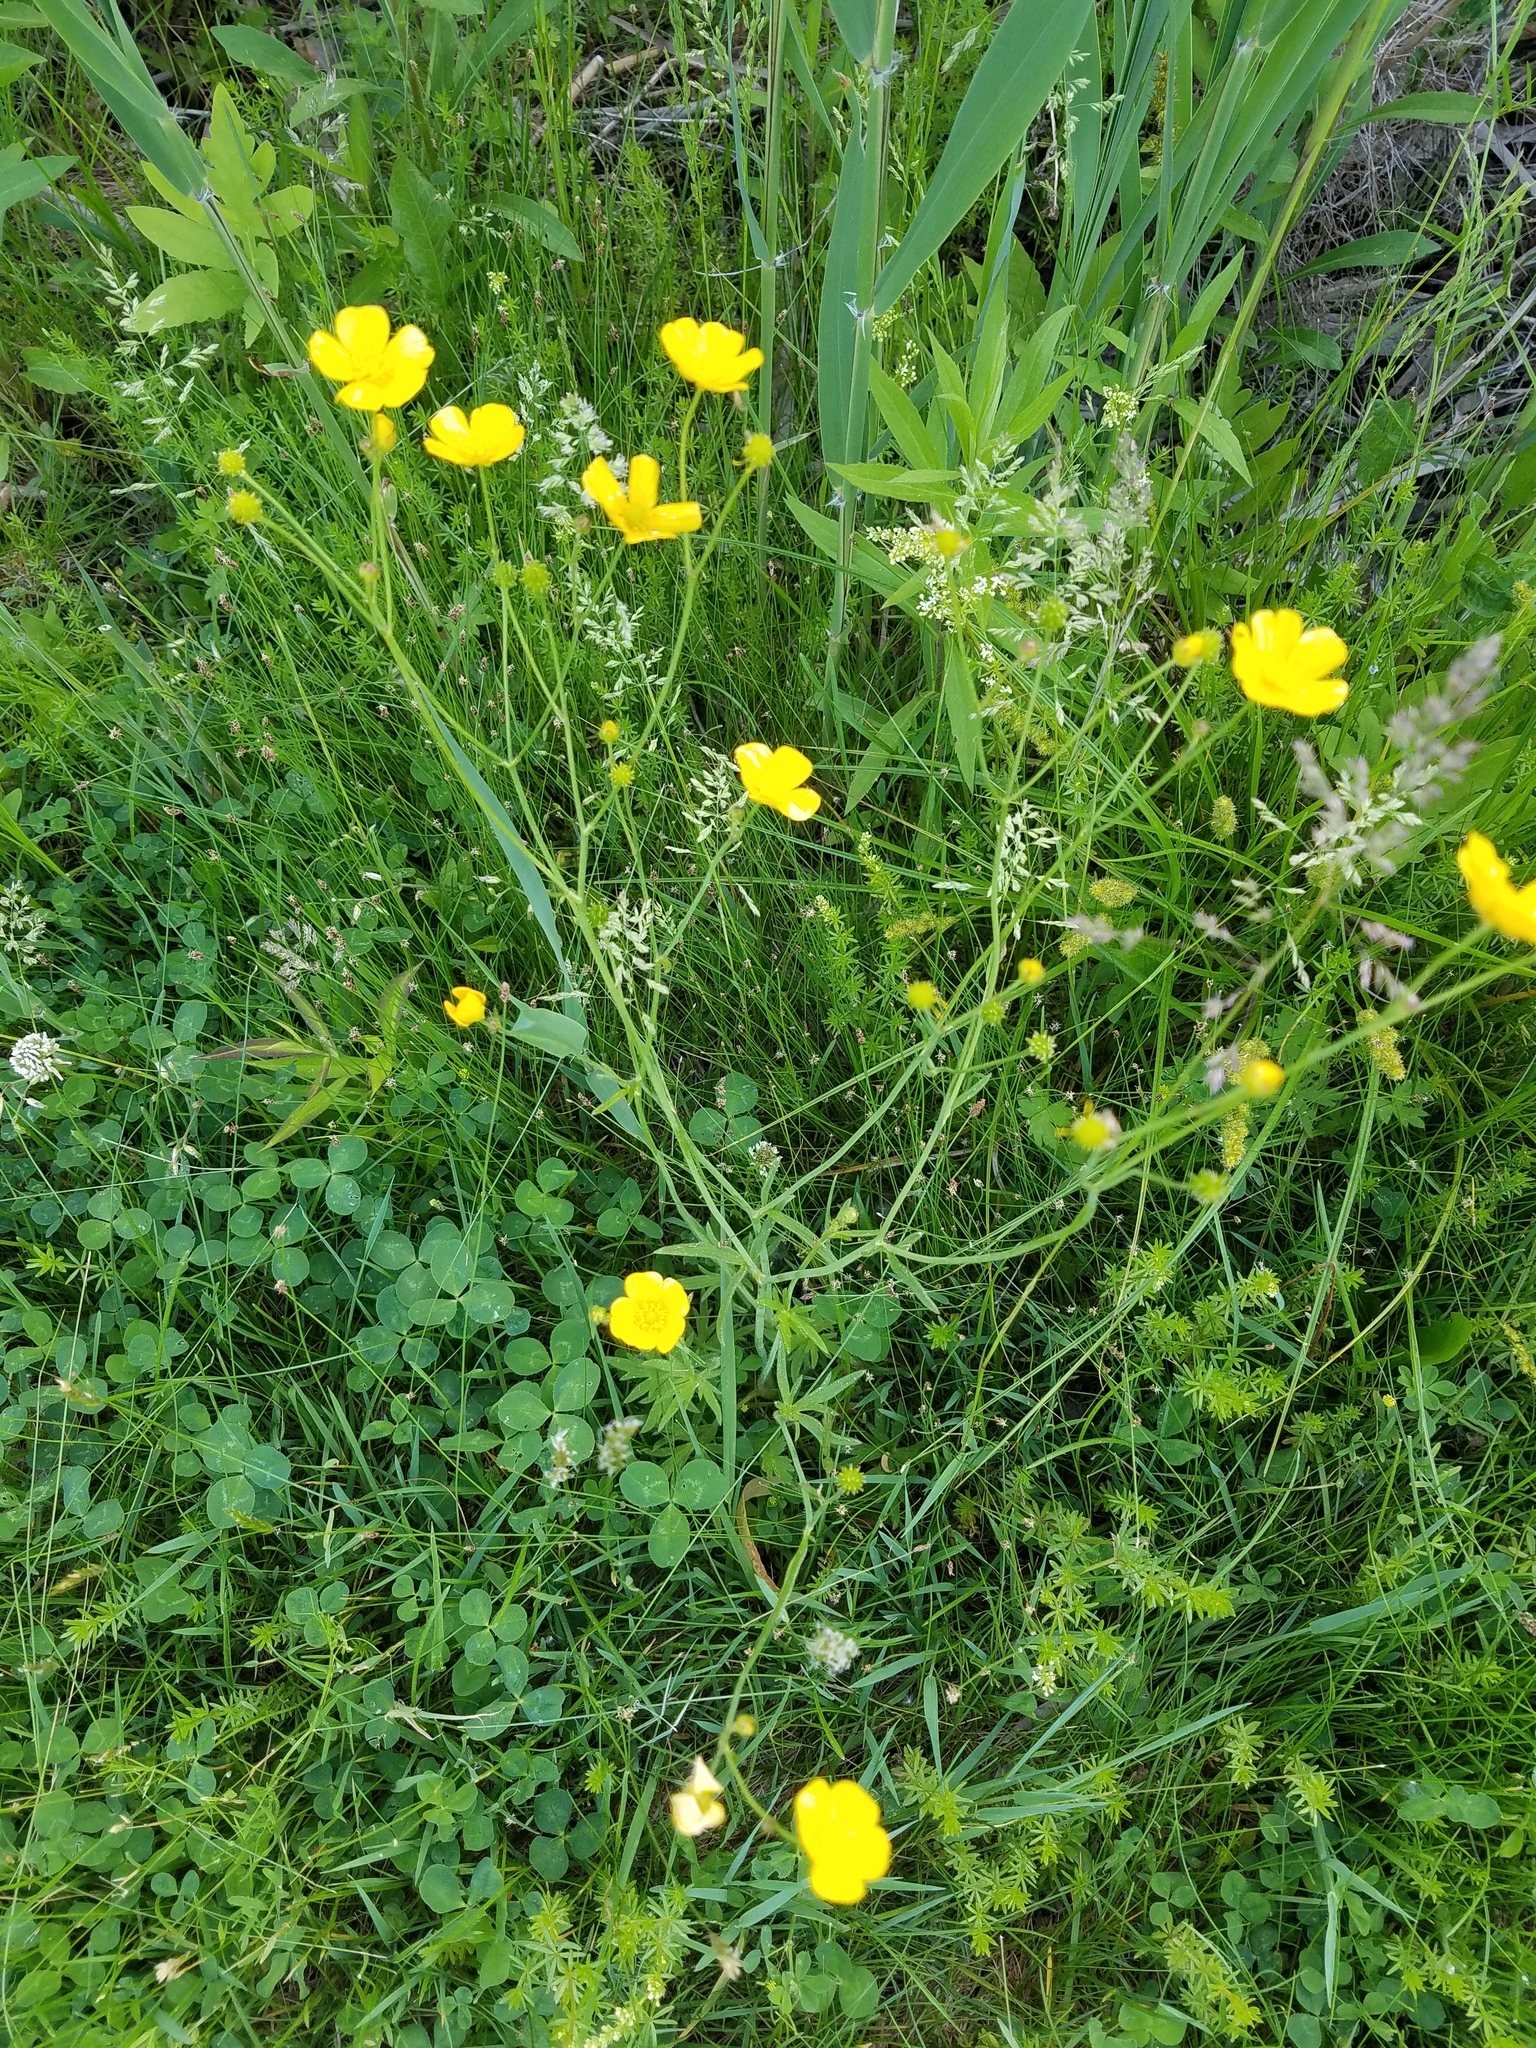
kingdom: Plantae
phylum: Tracheophyta
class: Magnoliopsida
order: Ranunculales
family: Ranunculaceae
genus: Ranunculus
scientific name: Ranunculus acris
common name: Meadow buttercup
